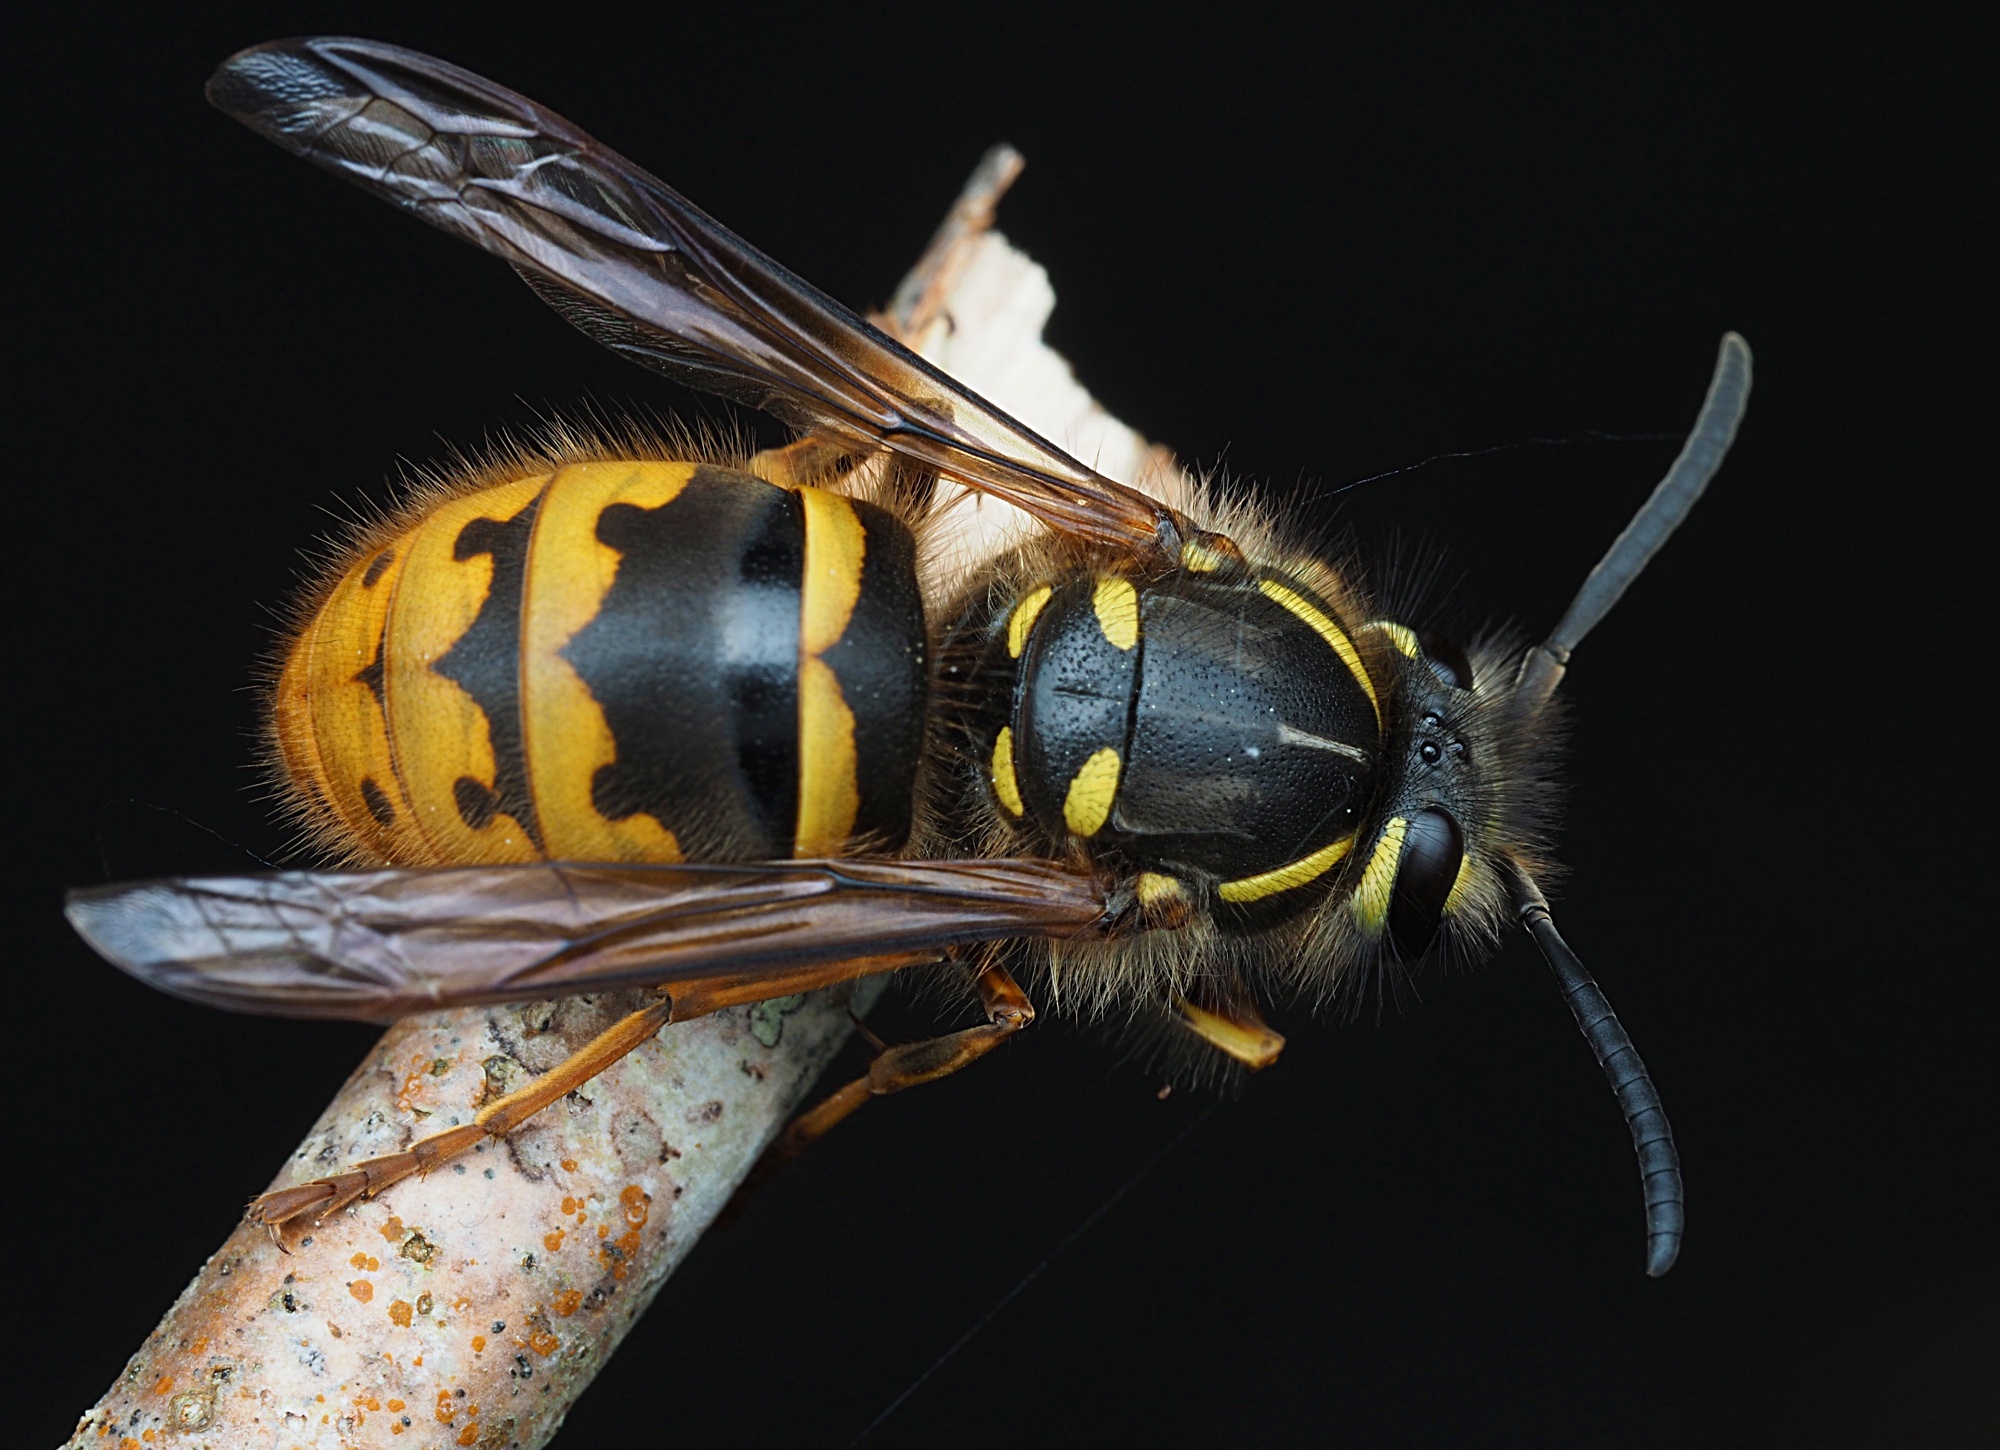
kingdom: Animalia
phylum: Arthropoda
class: Insecta
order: Hymenoptera
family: Vespidae
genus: Vespula
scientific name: Vespula vulgaris
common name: Common wasp
